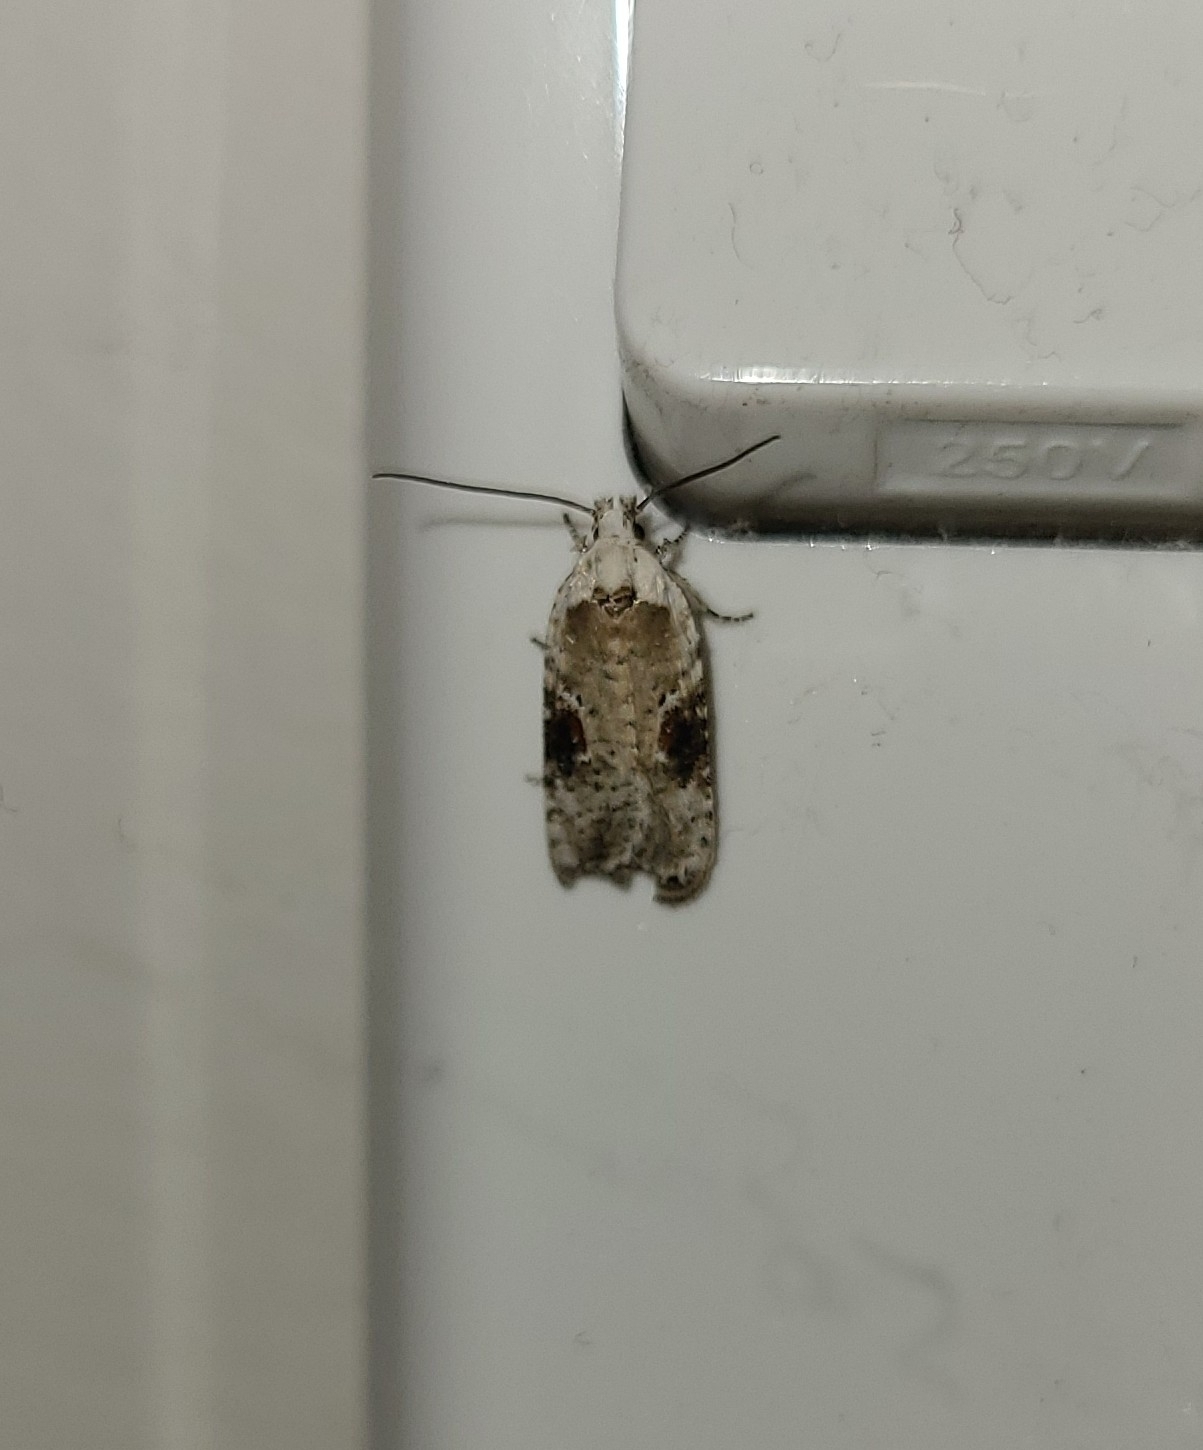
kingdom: Animalia
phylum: Arthropoda
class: Insecta
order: Lepidoptera
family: Depressariidae
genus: Agonopterix
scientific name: Agonopterix alstroemeriana
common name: Moth
